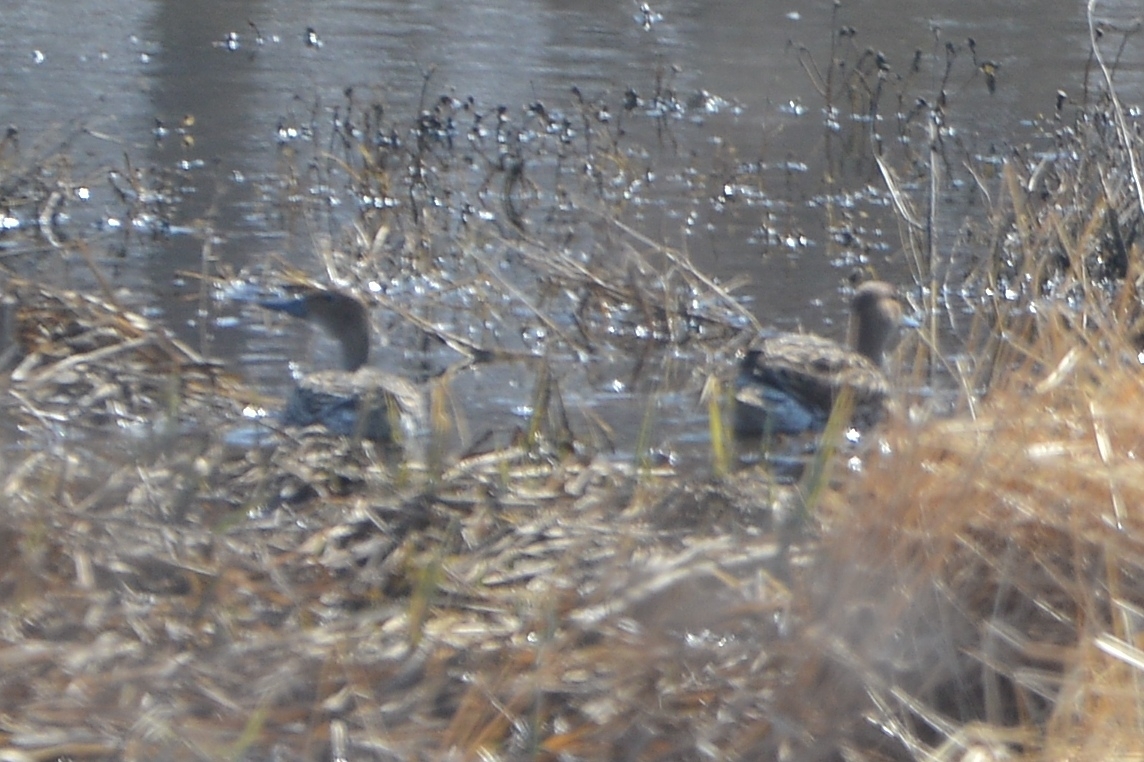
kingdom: Animalia
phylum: Chordata
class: Aves
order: Anseriformes
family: Anatidae
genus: Anas
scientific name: Anas acuta
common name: Northern pintail
